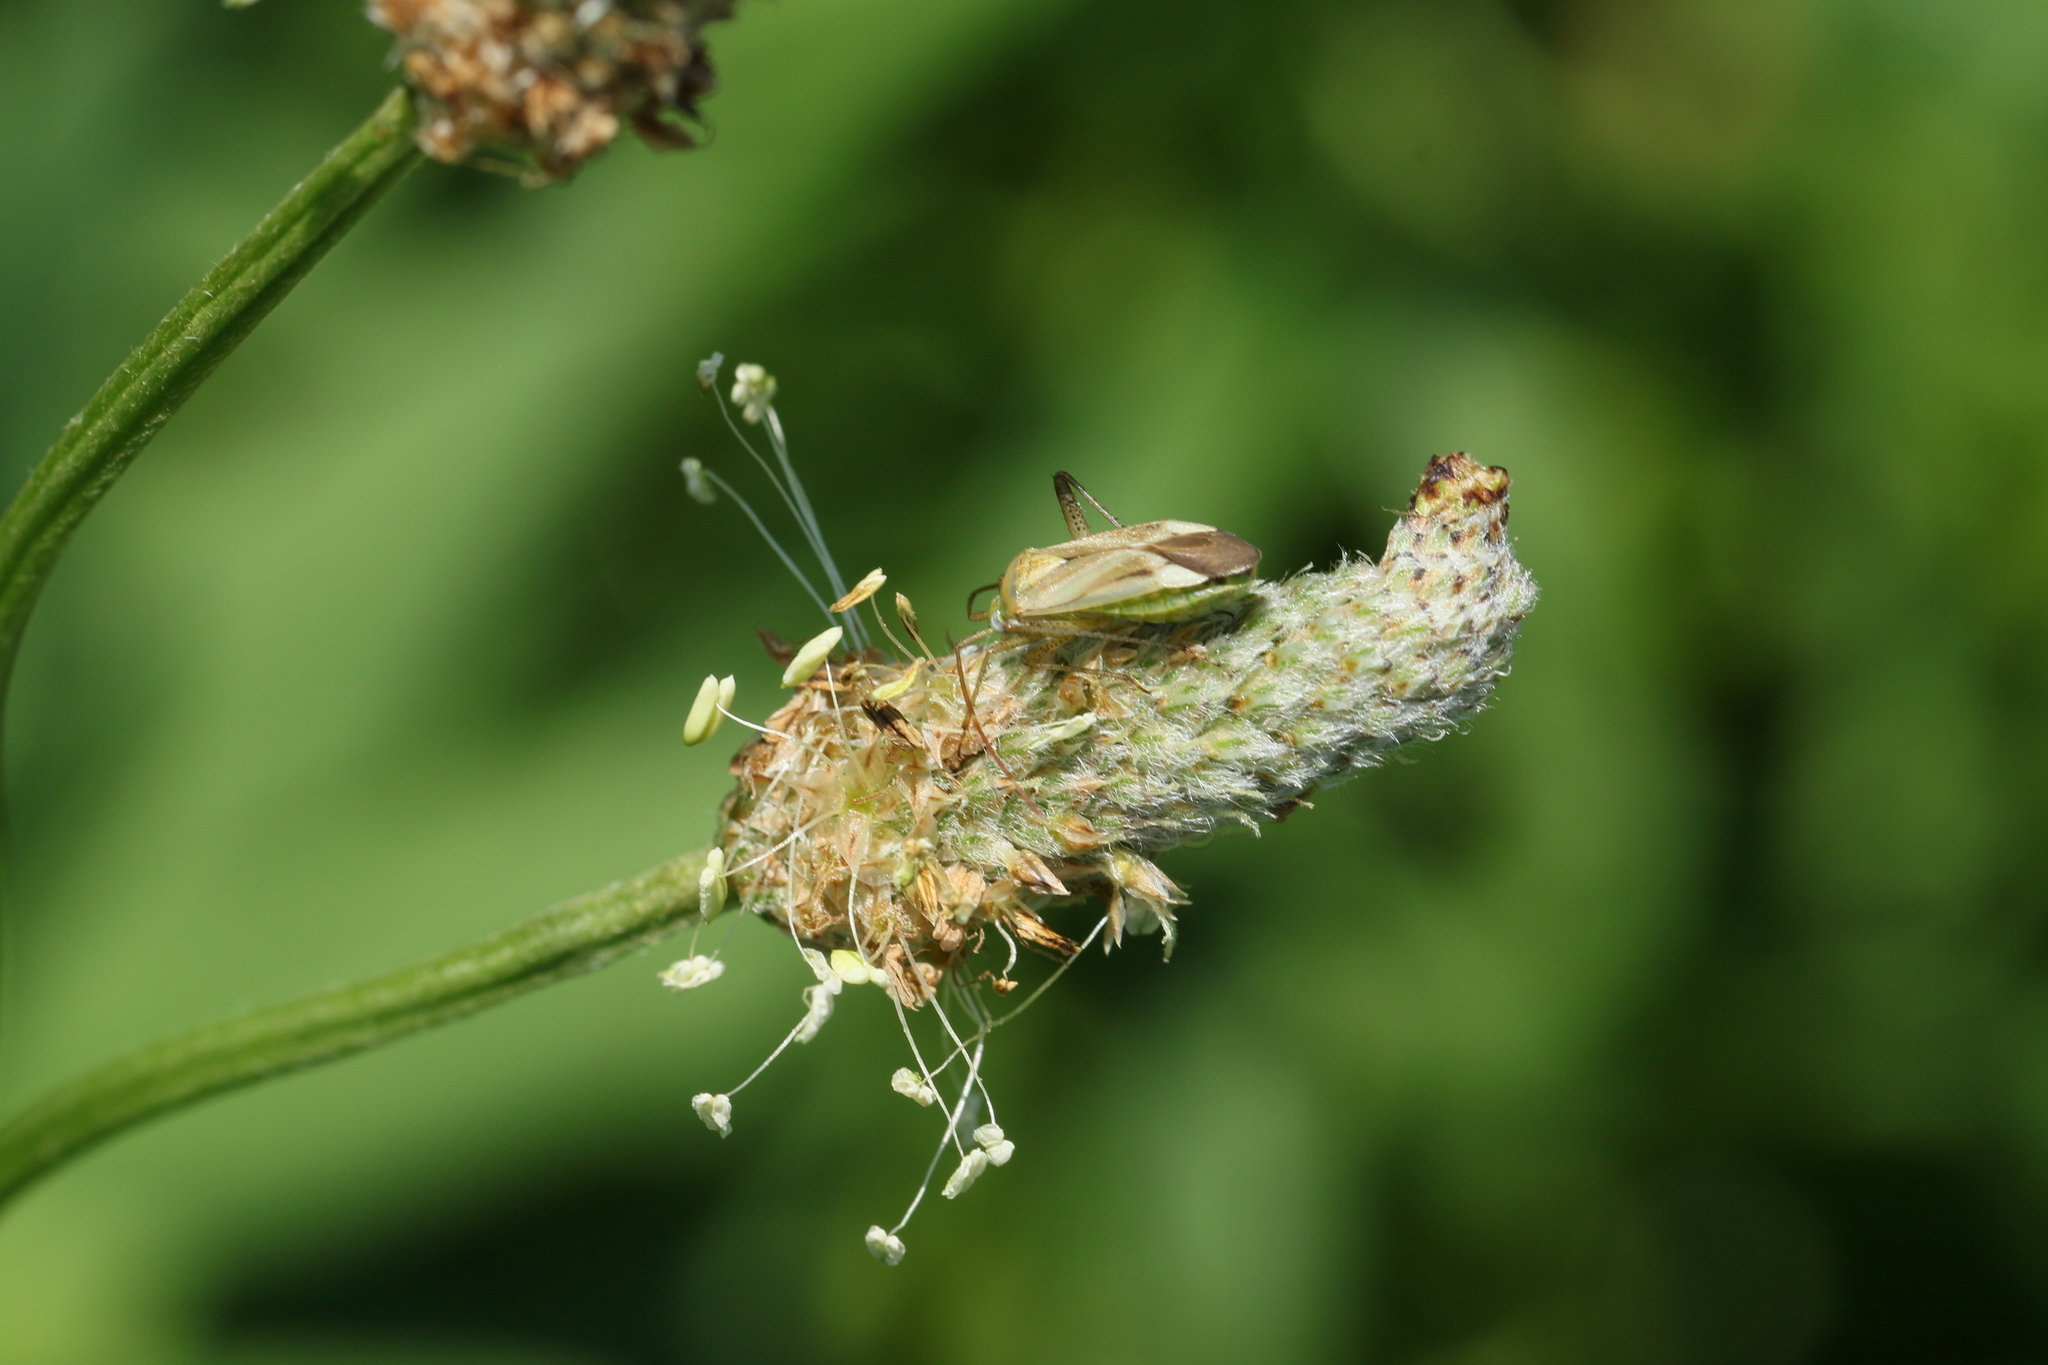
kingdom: Animalia
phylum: Arthropoda
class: Insecta
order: Hemiptera
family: Miridae
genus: Adelphocoris
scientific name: Adelphocoris lineolatus
